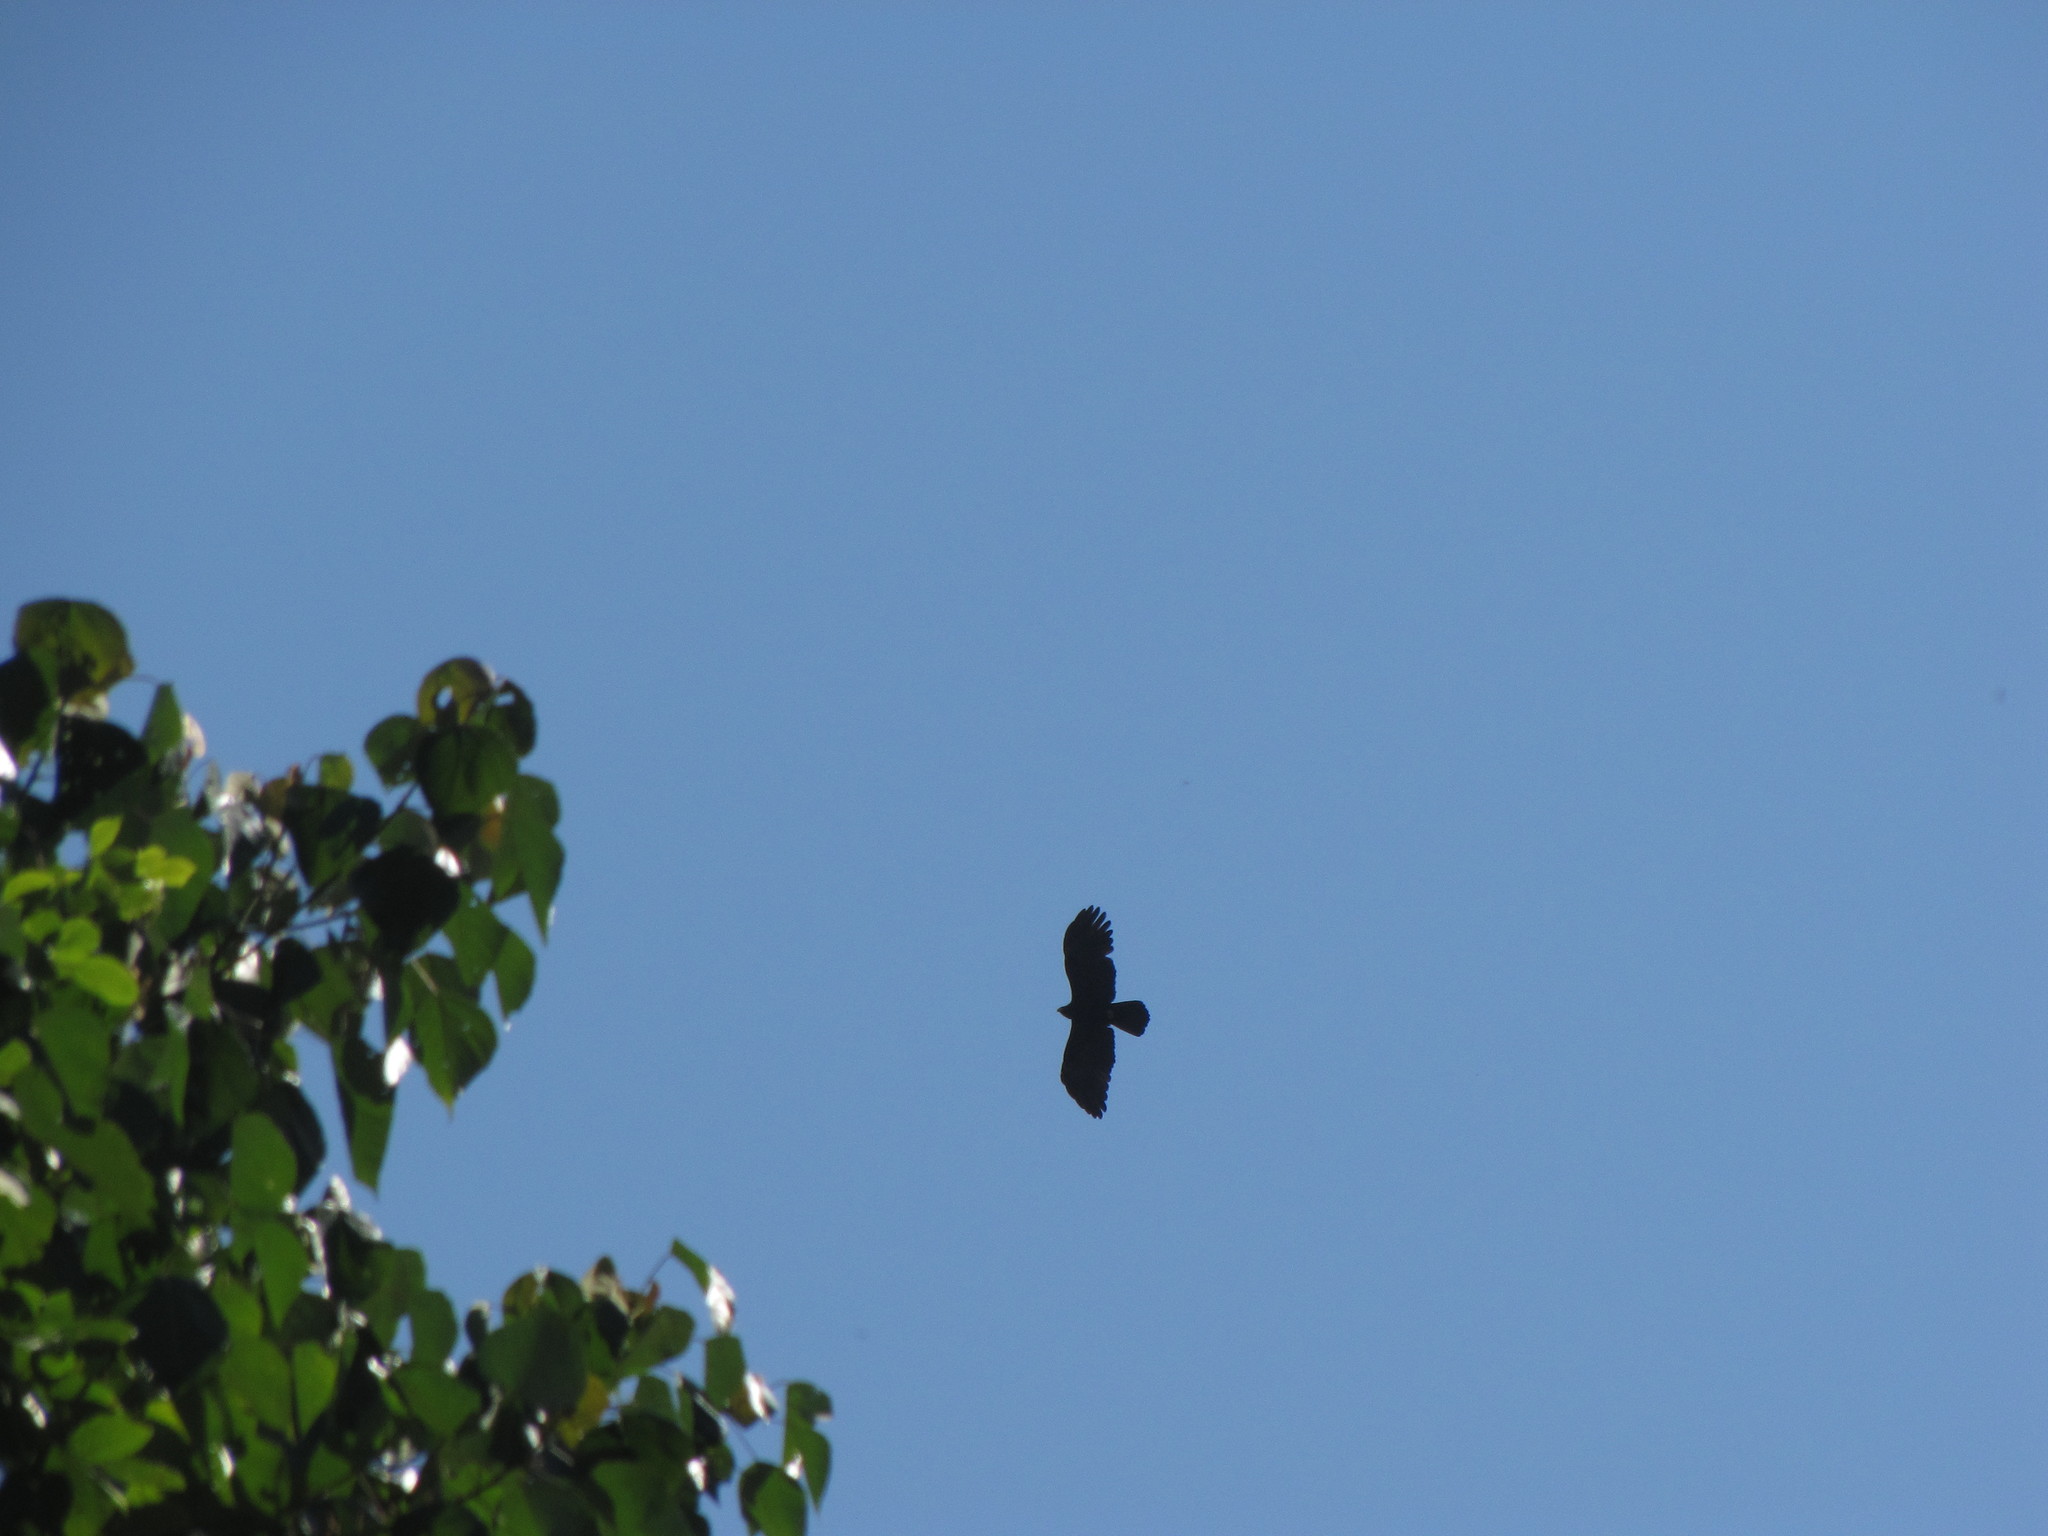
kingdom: Animalia
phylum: Chordata
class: Aves
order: Accipitriformes
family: Accipitridae
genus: Ictinaetus
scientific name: Ictinaetus malayensis
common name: Black eagle
